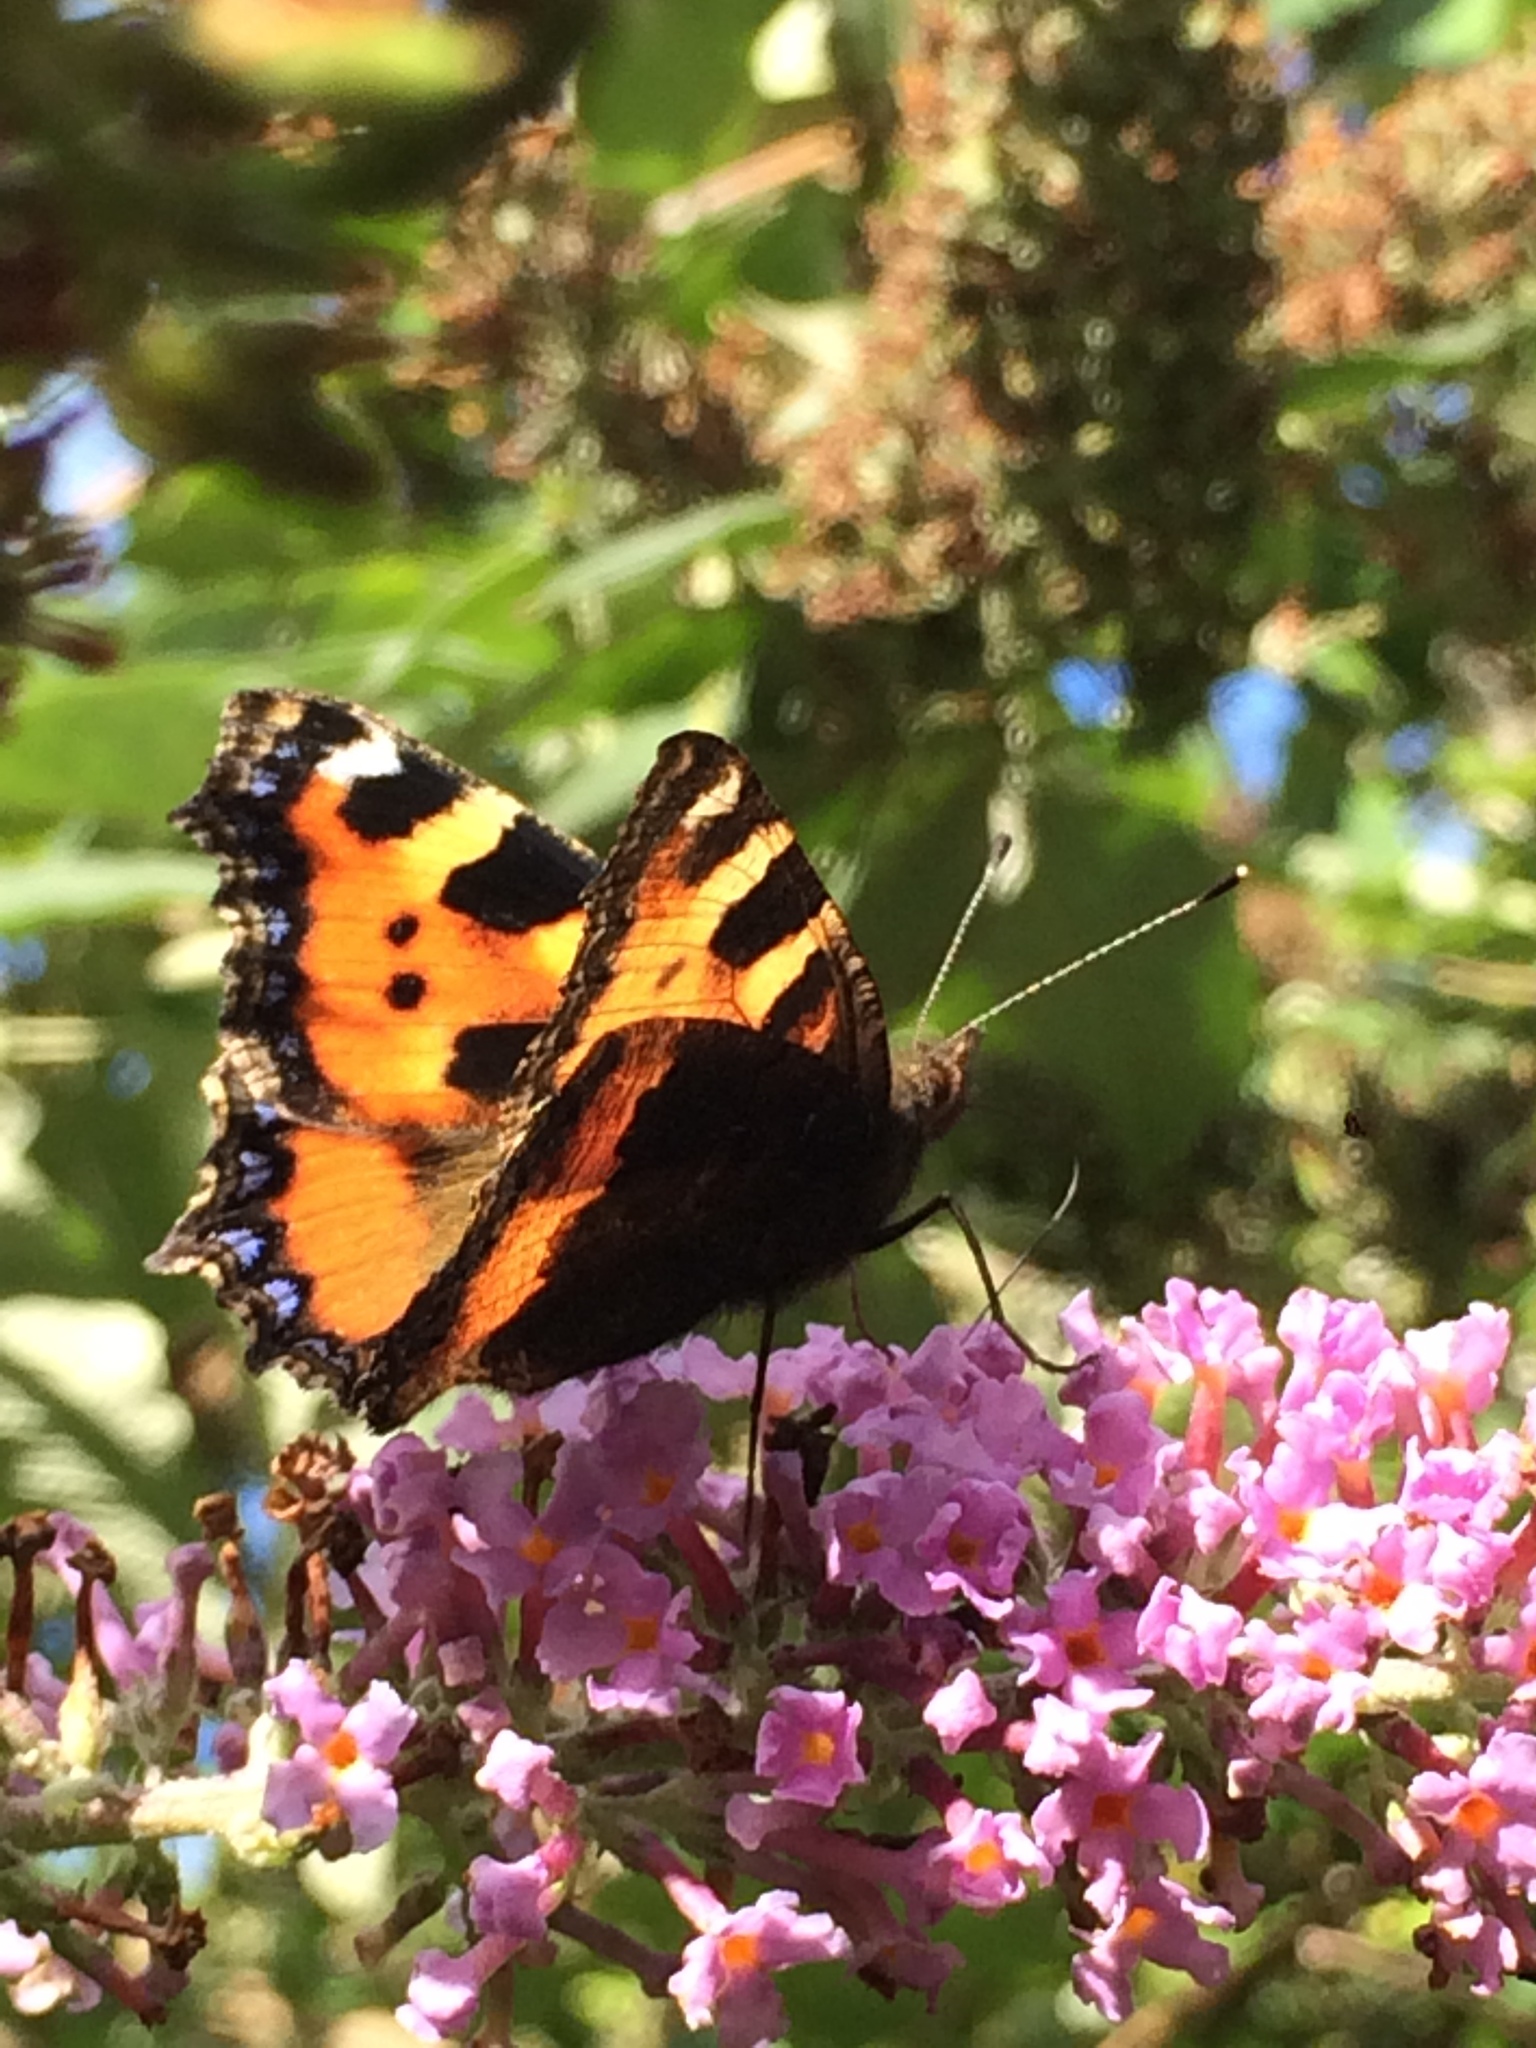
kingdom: Animalia
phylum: Arthropoda
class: Insecta
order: Lepidoptera
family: Nymphalidae
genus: Aglais
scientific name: Aglais urticae
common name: Small tortoiseshell
